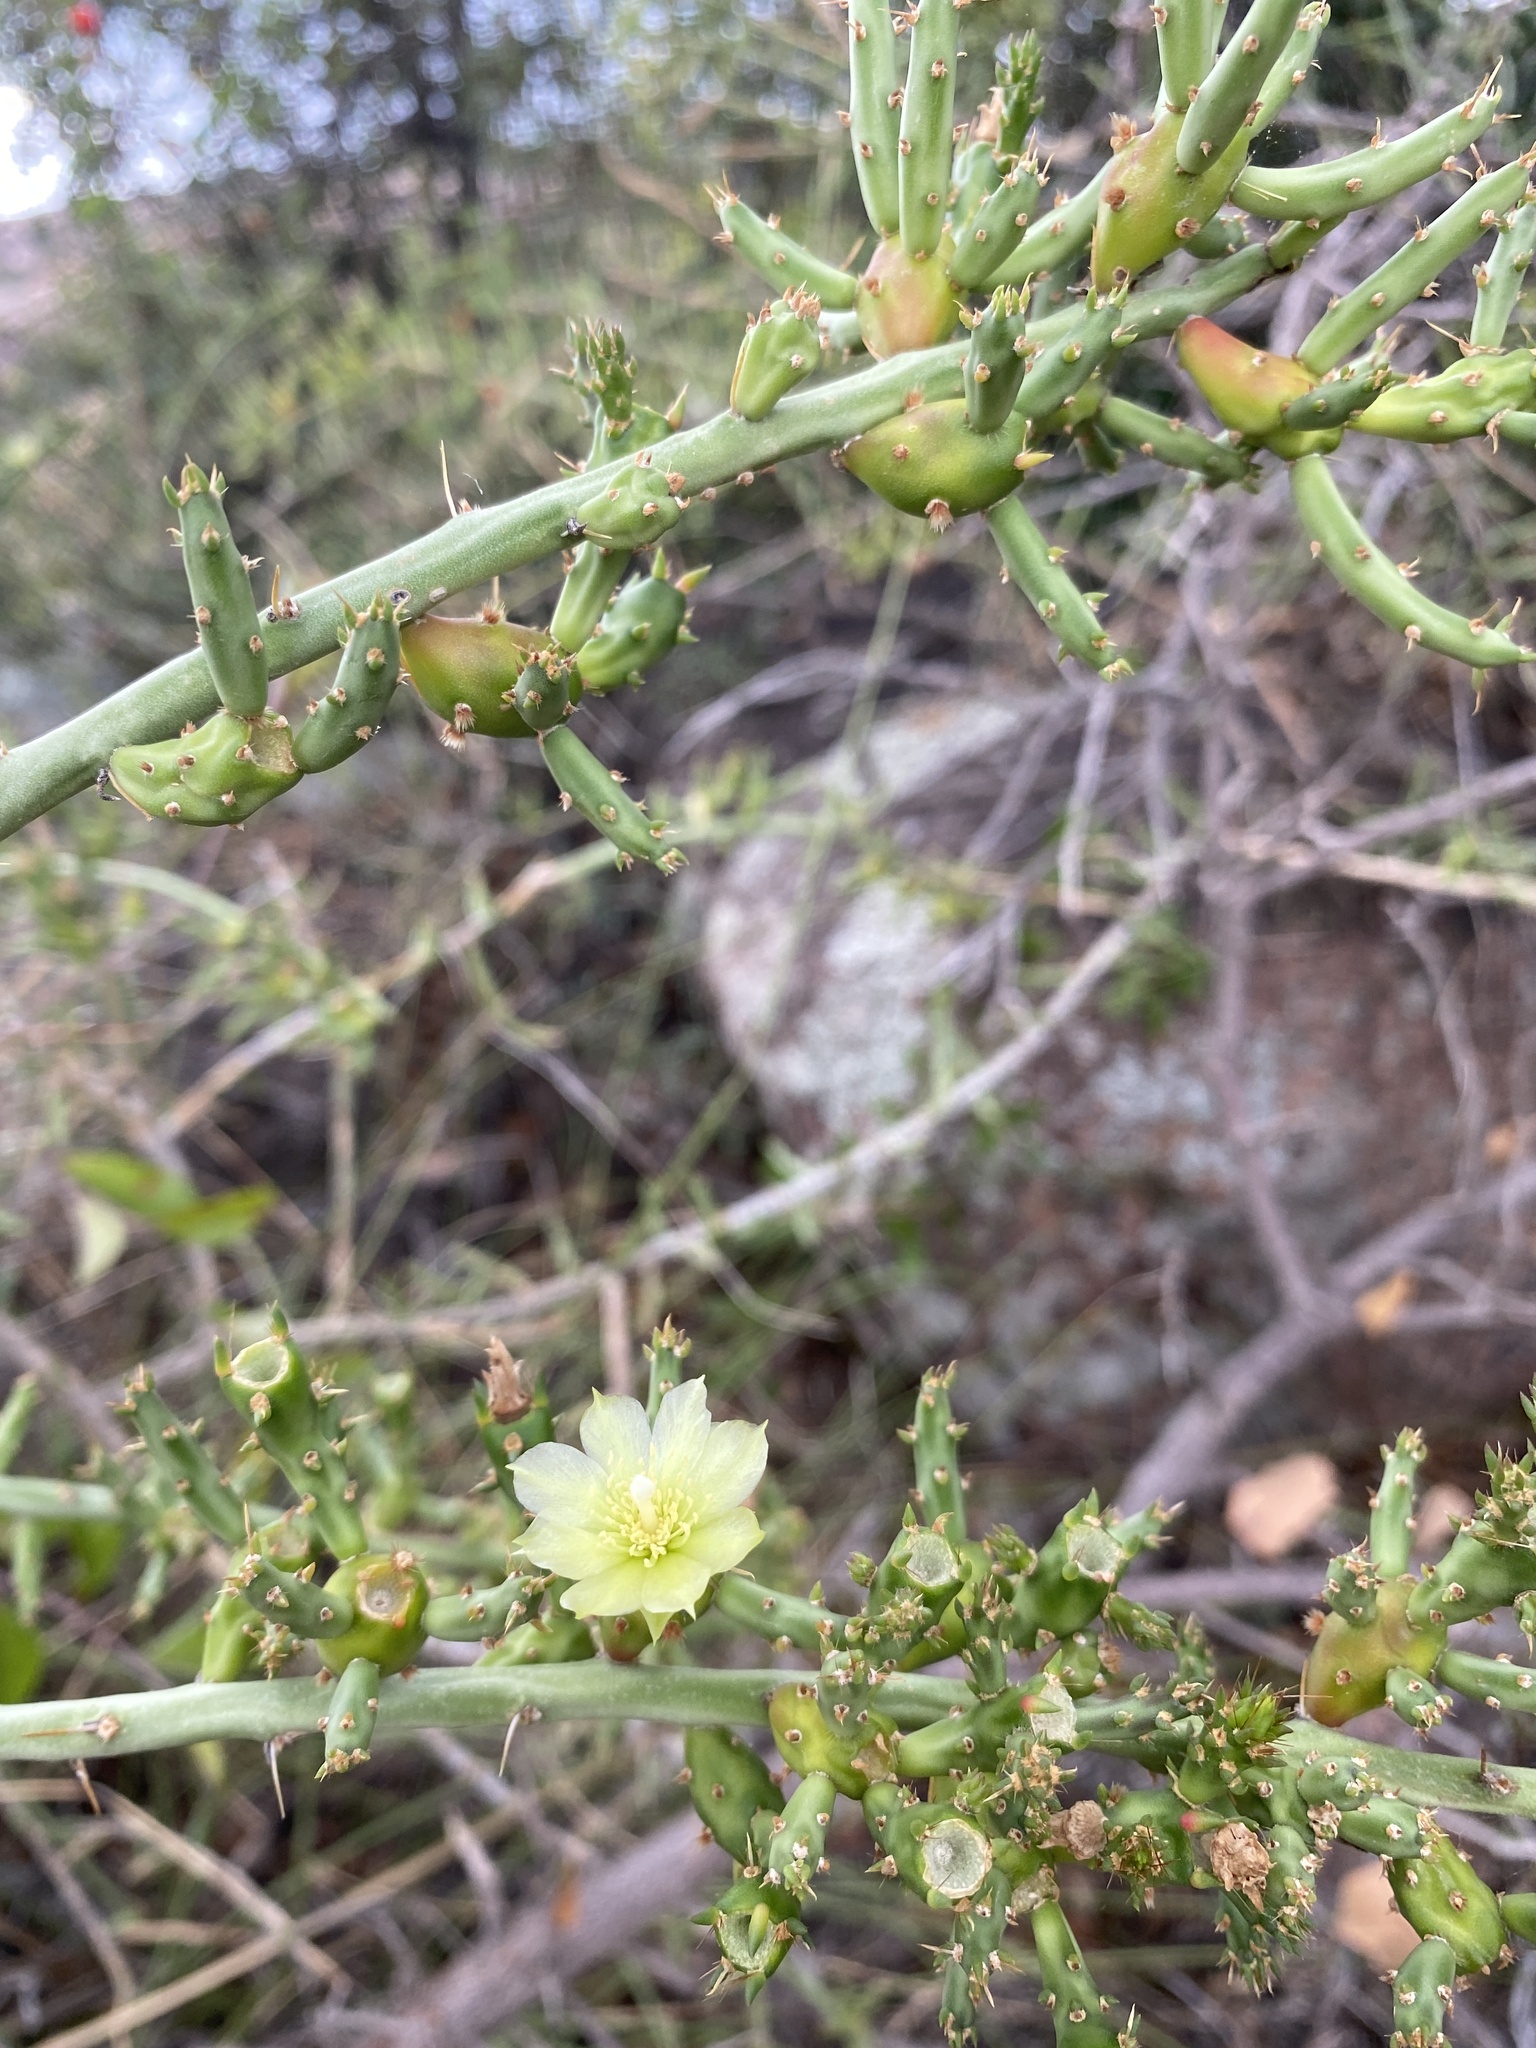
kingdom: Plantae
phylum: Tracheophyta
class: Magnoliopsida
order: Caryophyllales
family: Cactaceae
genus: Cylindropuntia
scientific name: Cylindropuntia leptocaulis
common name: Christmas cactus
